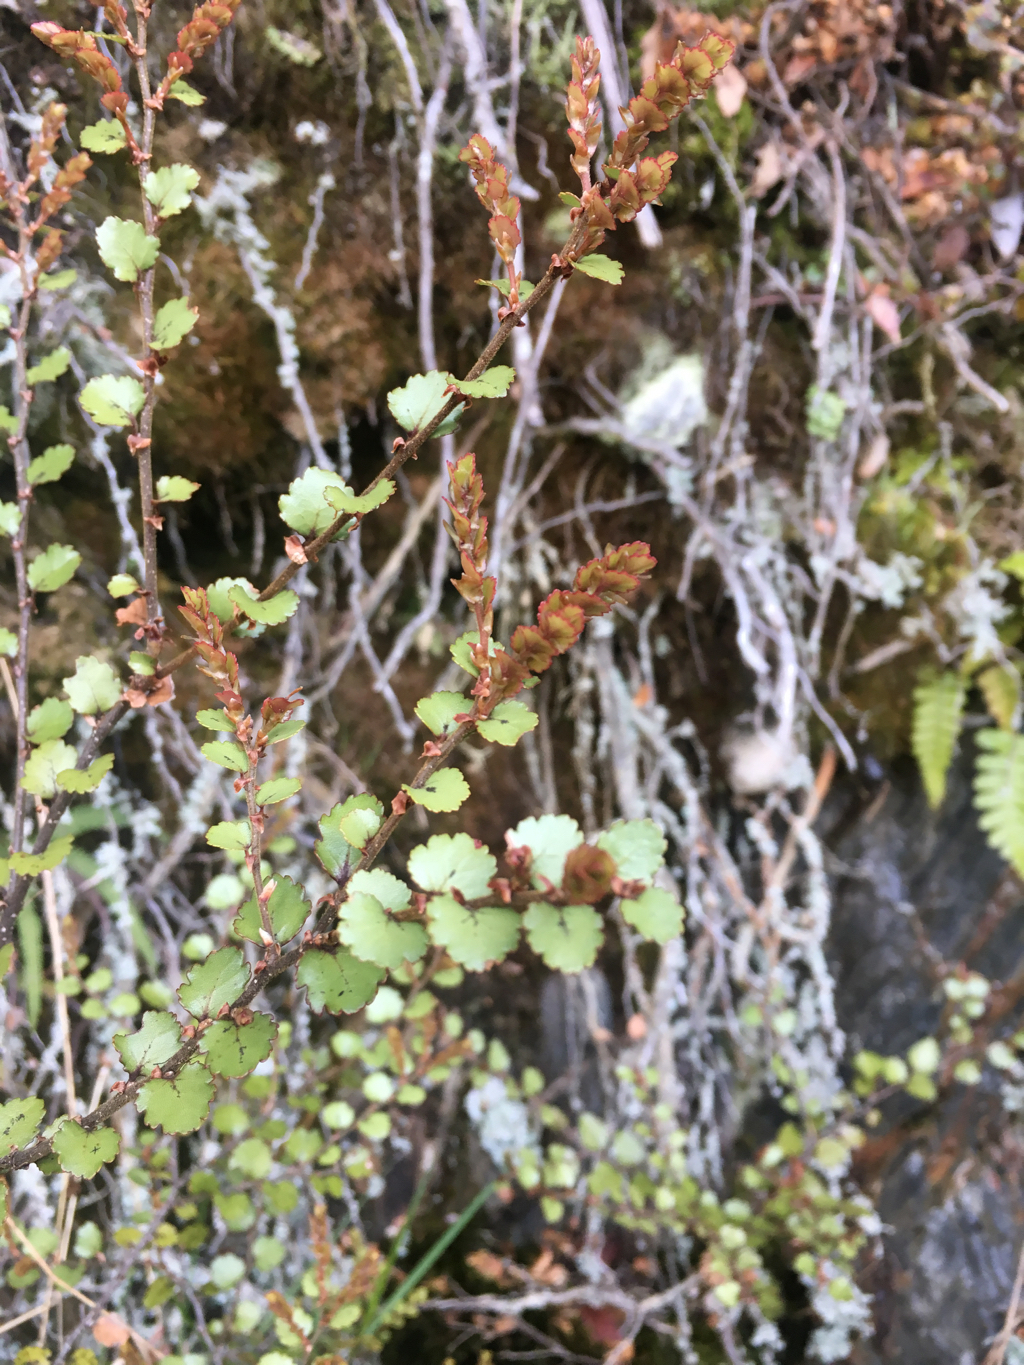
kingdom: Plantae
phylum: Tracheophyta
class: Magnoliopsida
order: Fagales
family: Nothofagaceae
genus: Nothofagus
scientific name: Nothofagus menziesii
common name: Silver beech
